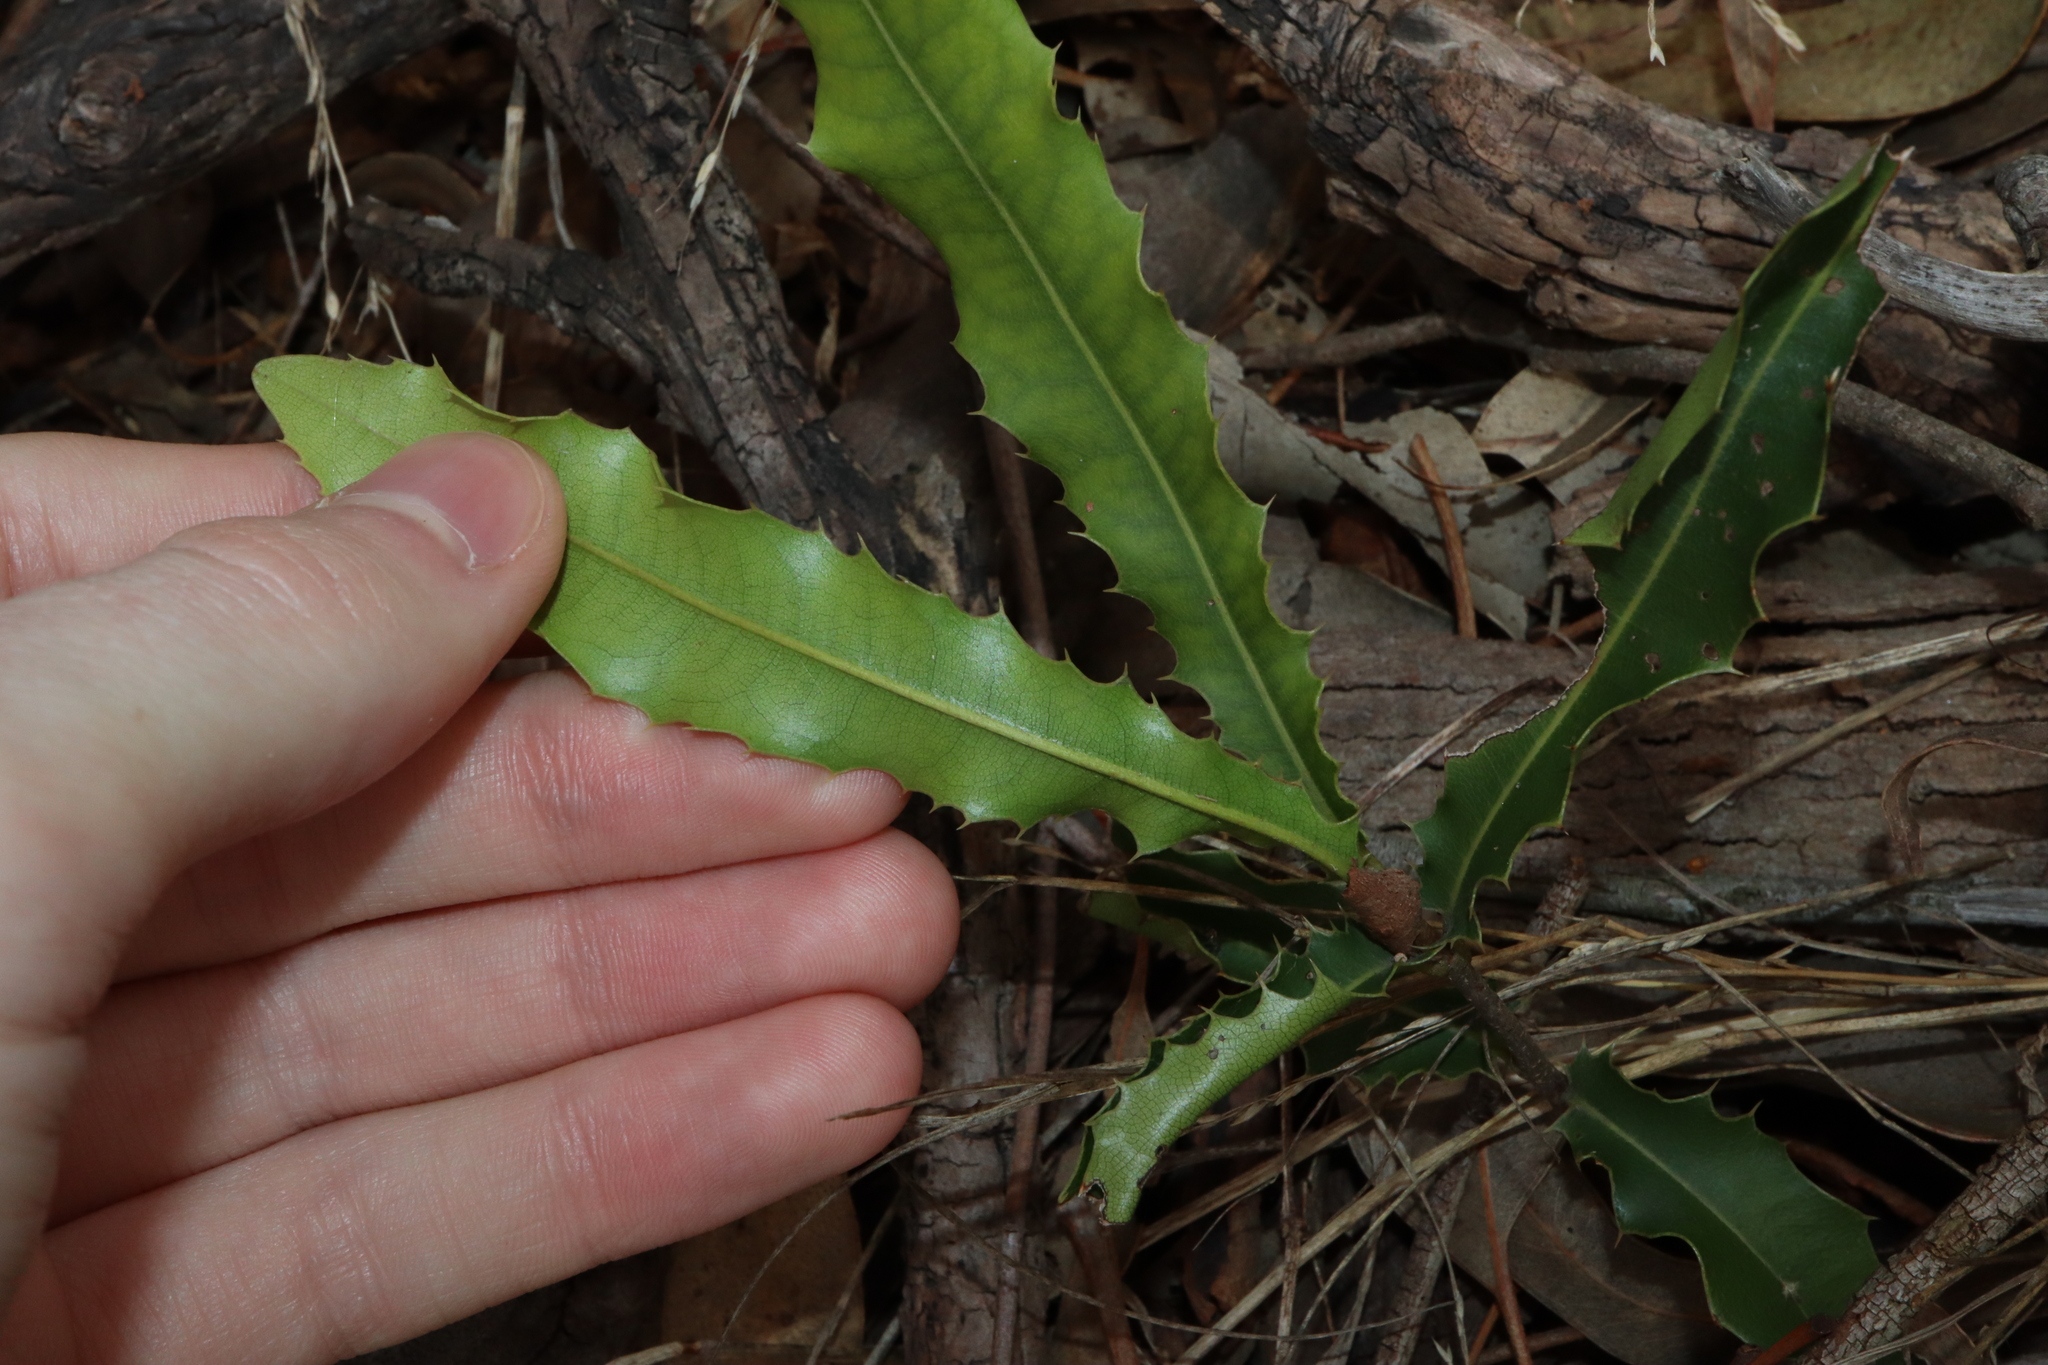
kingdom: Plantae
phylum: Tracheophyta
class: Magnoliopsida
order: Proteales
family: Proteaceae
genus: Macadamia
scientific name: Macadamia integrifolia
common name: Macadamia
